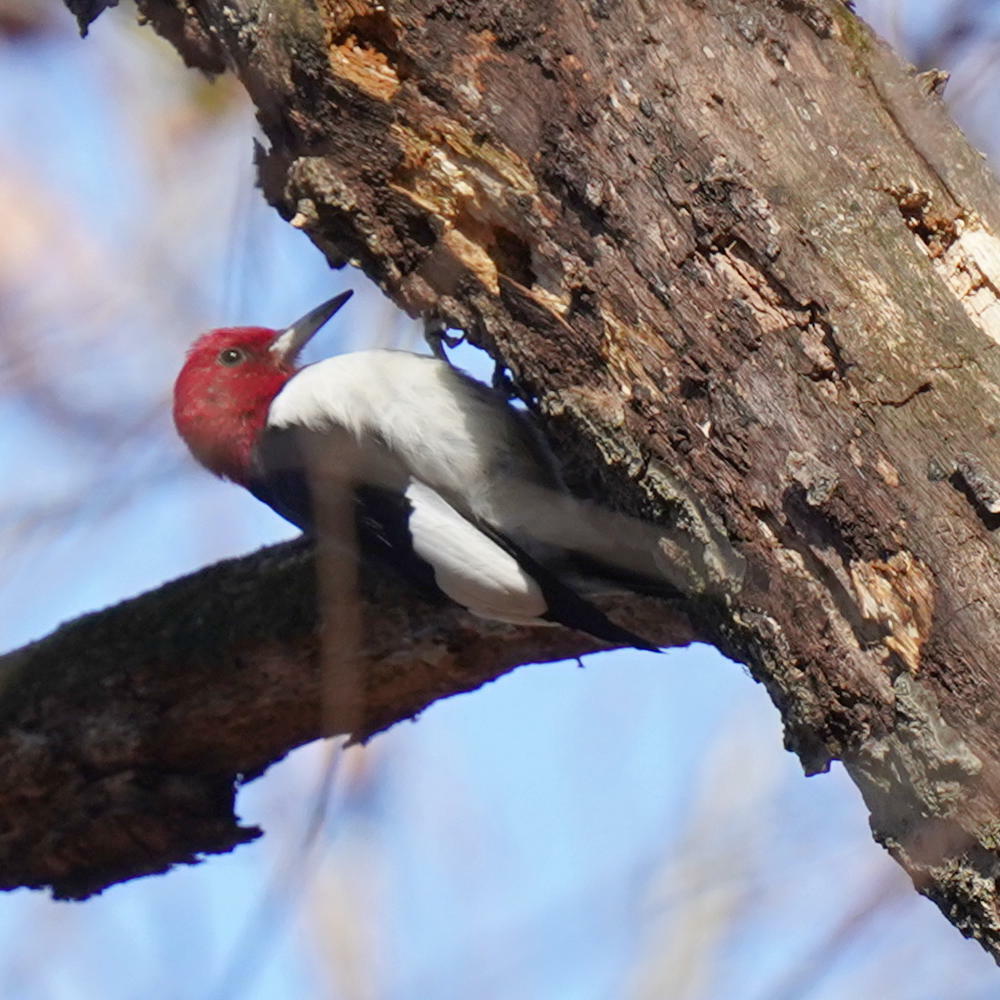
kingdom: Animalia
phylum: Chordata
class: Aves
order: Piciformes
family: Picidae
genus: Melanerpes
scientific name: Melanerpes erythrocephalus
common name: Red-headed woodpecker
